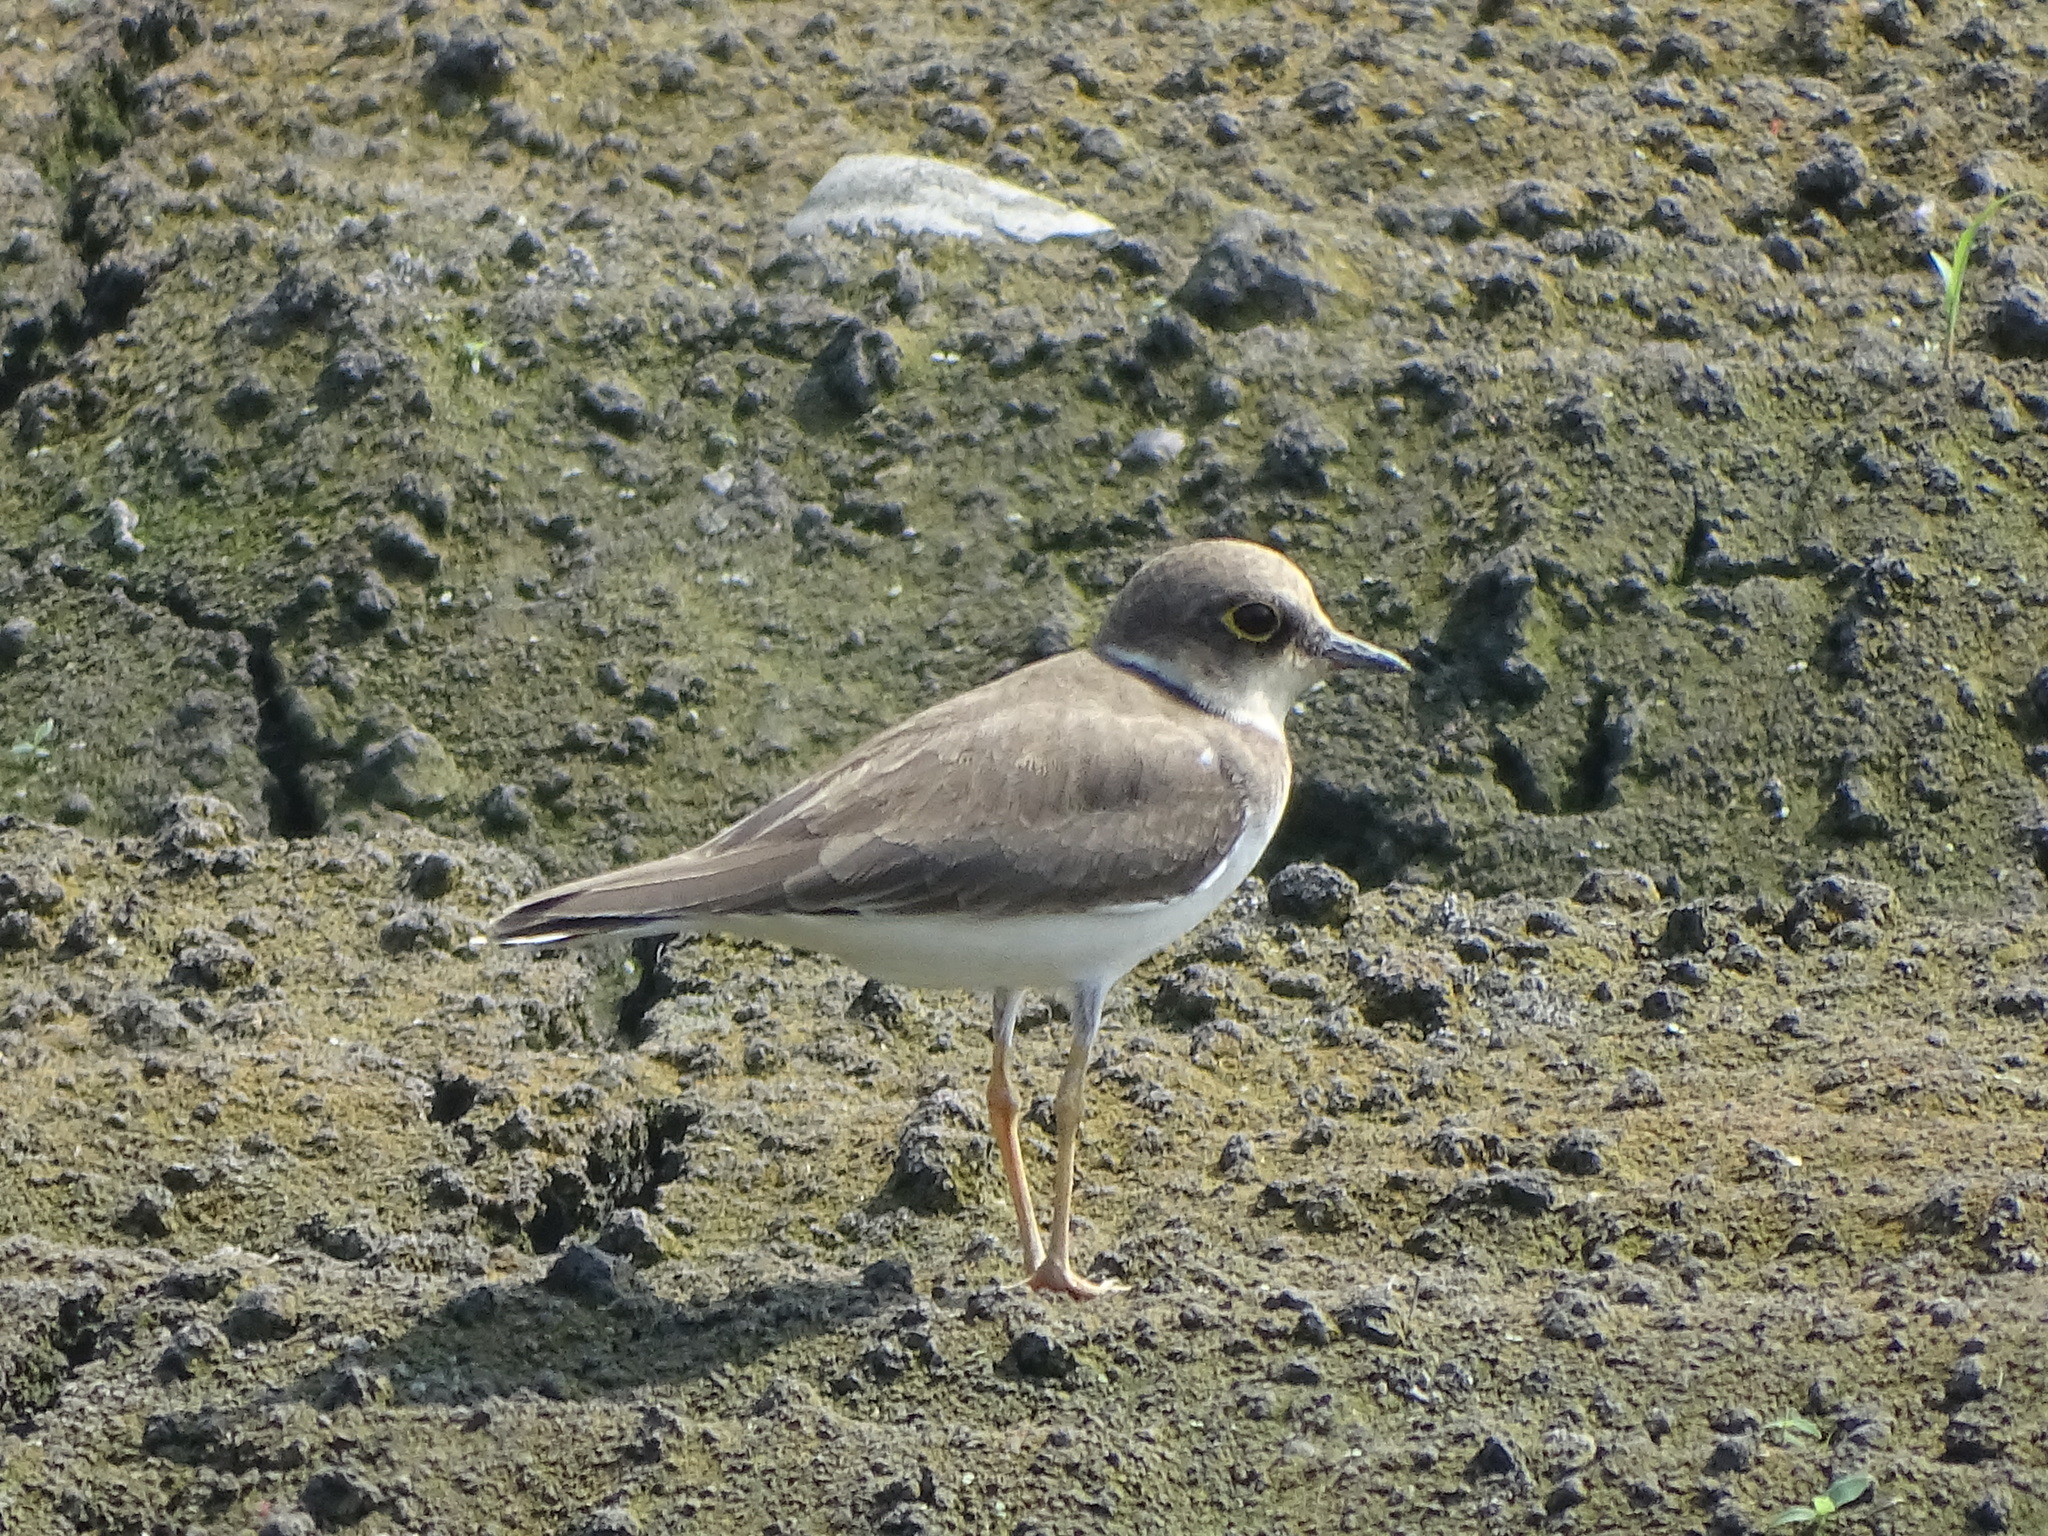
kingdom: Animalia
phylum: Chordata
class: Aves
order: Charadriiformes
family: Charadriidae
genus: Charadrius
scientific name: Charadrius dubius
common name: Little ringed plover
